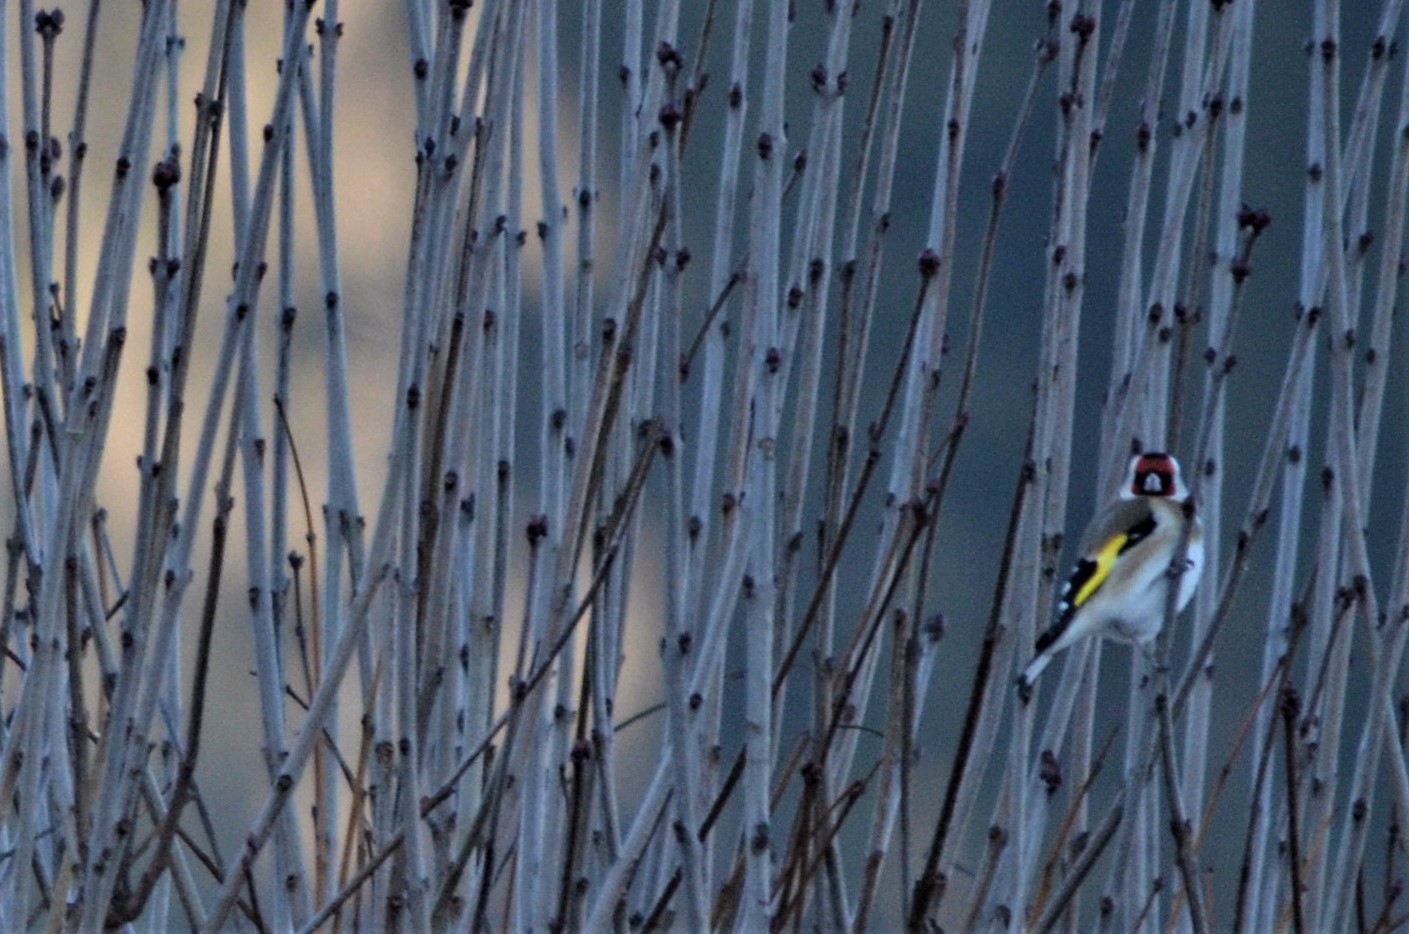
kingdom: Animalia
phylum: Chordata
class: Aves
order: Passeriformes
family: Fringillidae
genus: Carduelis
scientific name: Carduelis carduelis
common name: European goldfinch
